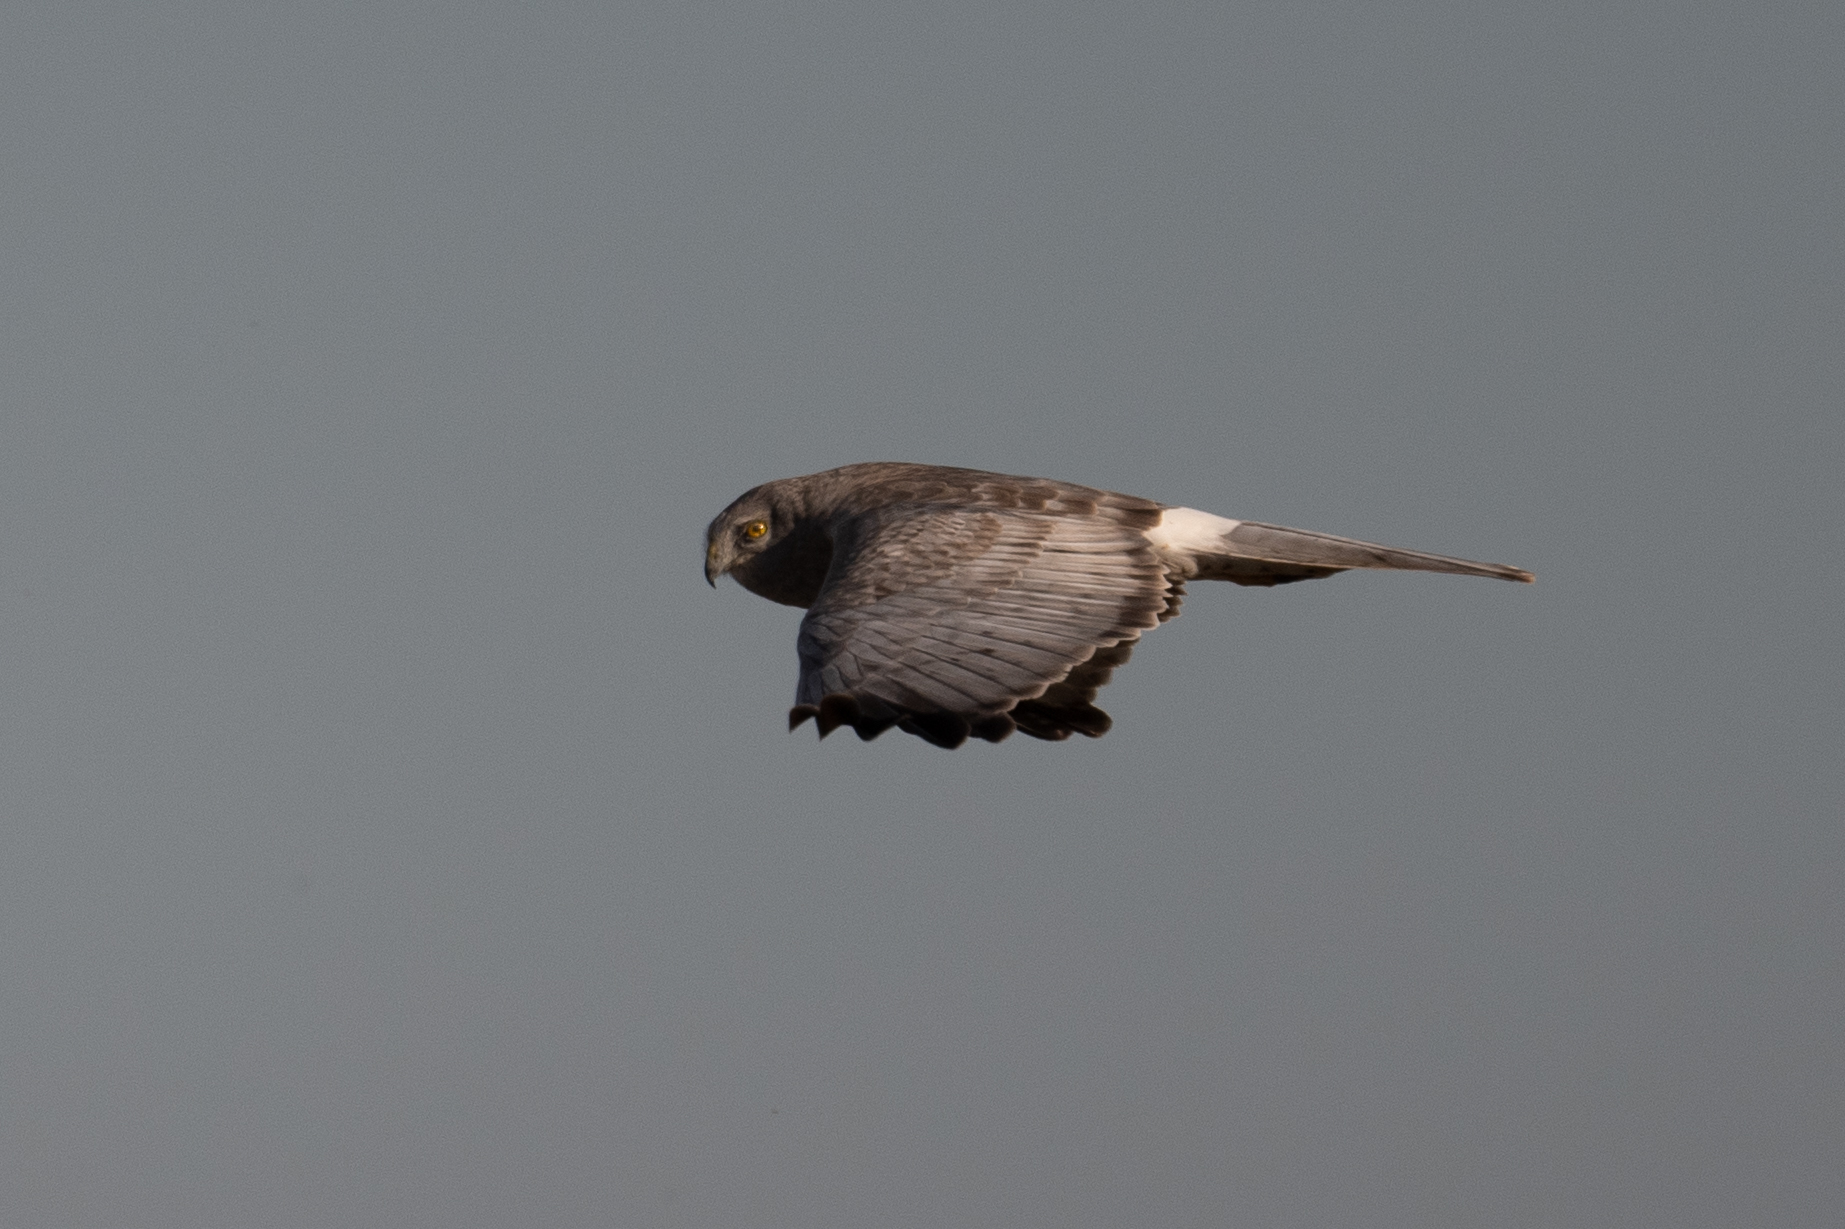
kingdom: Animalia
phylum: Chordata
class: Aves
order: Accipitriformes
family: Accipitridae
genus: Circus
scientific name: Circus cyaneus
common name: Hen harrier
